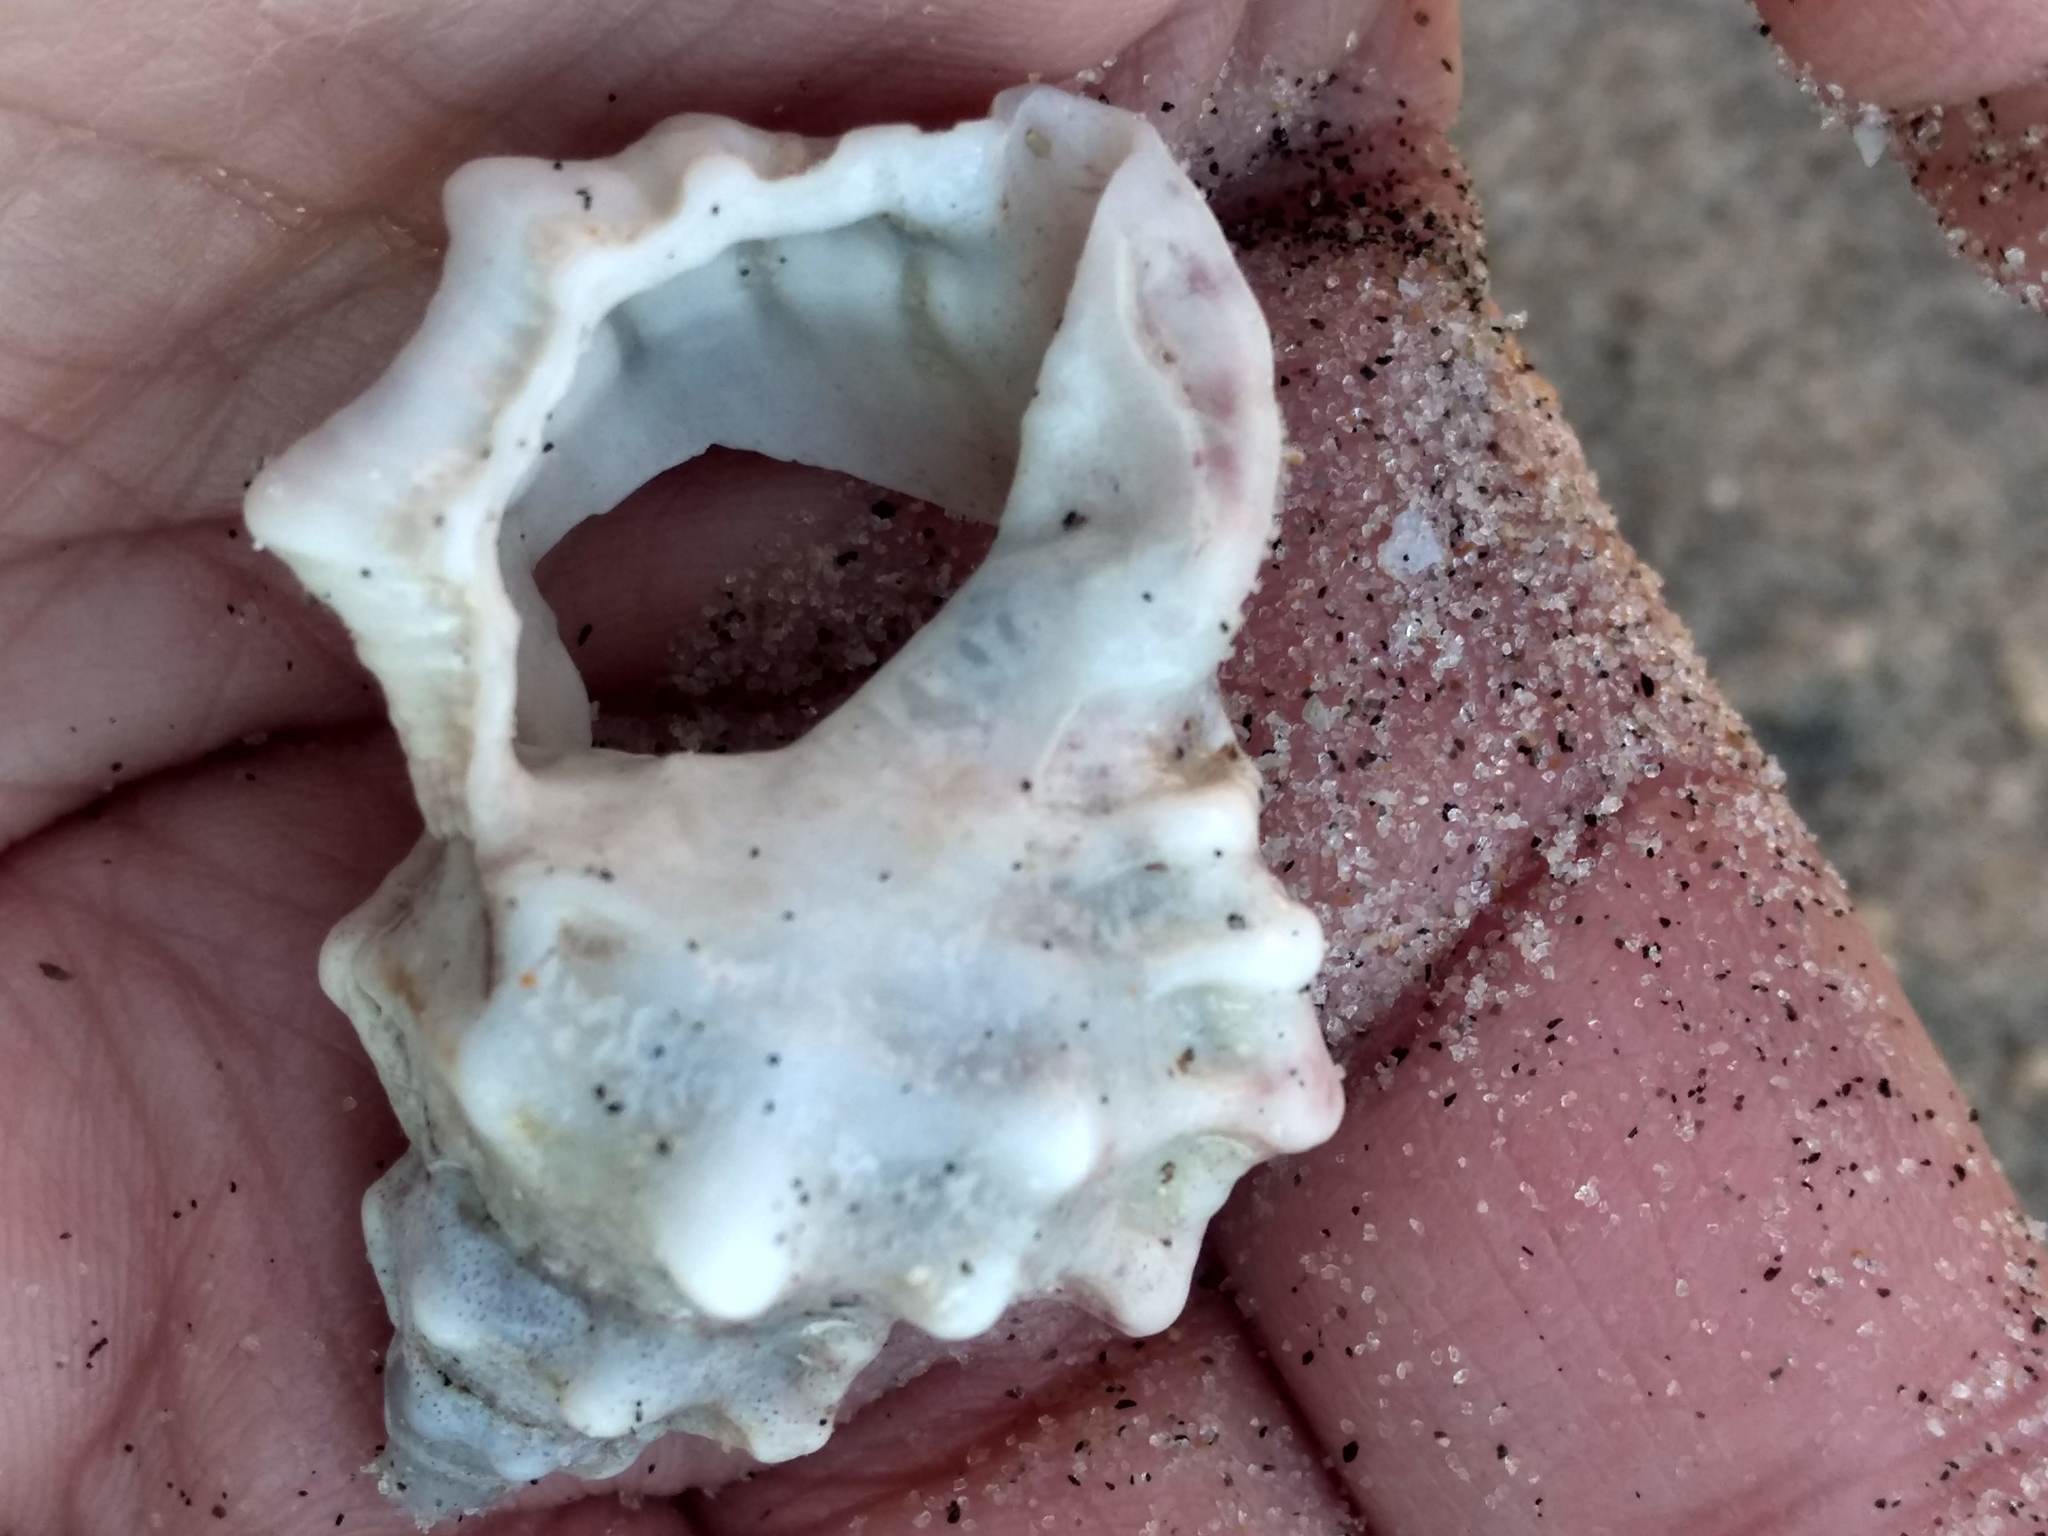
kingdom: Animalia
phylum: Mollusca
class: Gastropoda
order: Littorinimorpha
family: Bursidae
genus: Crossata
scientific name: Crossata californica
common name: California frogsnail
